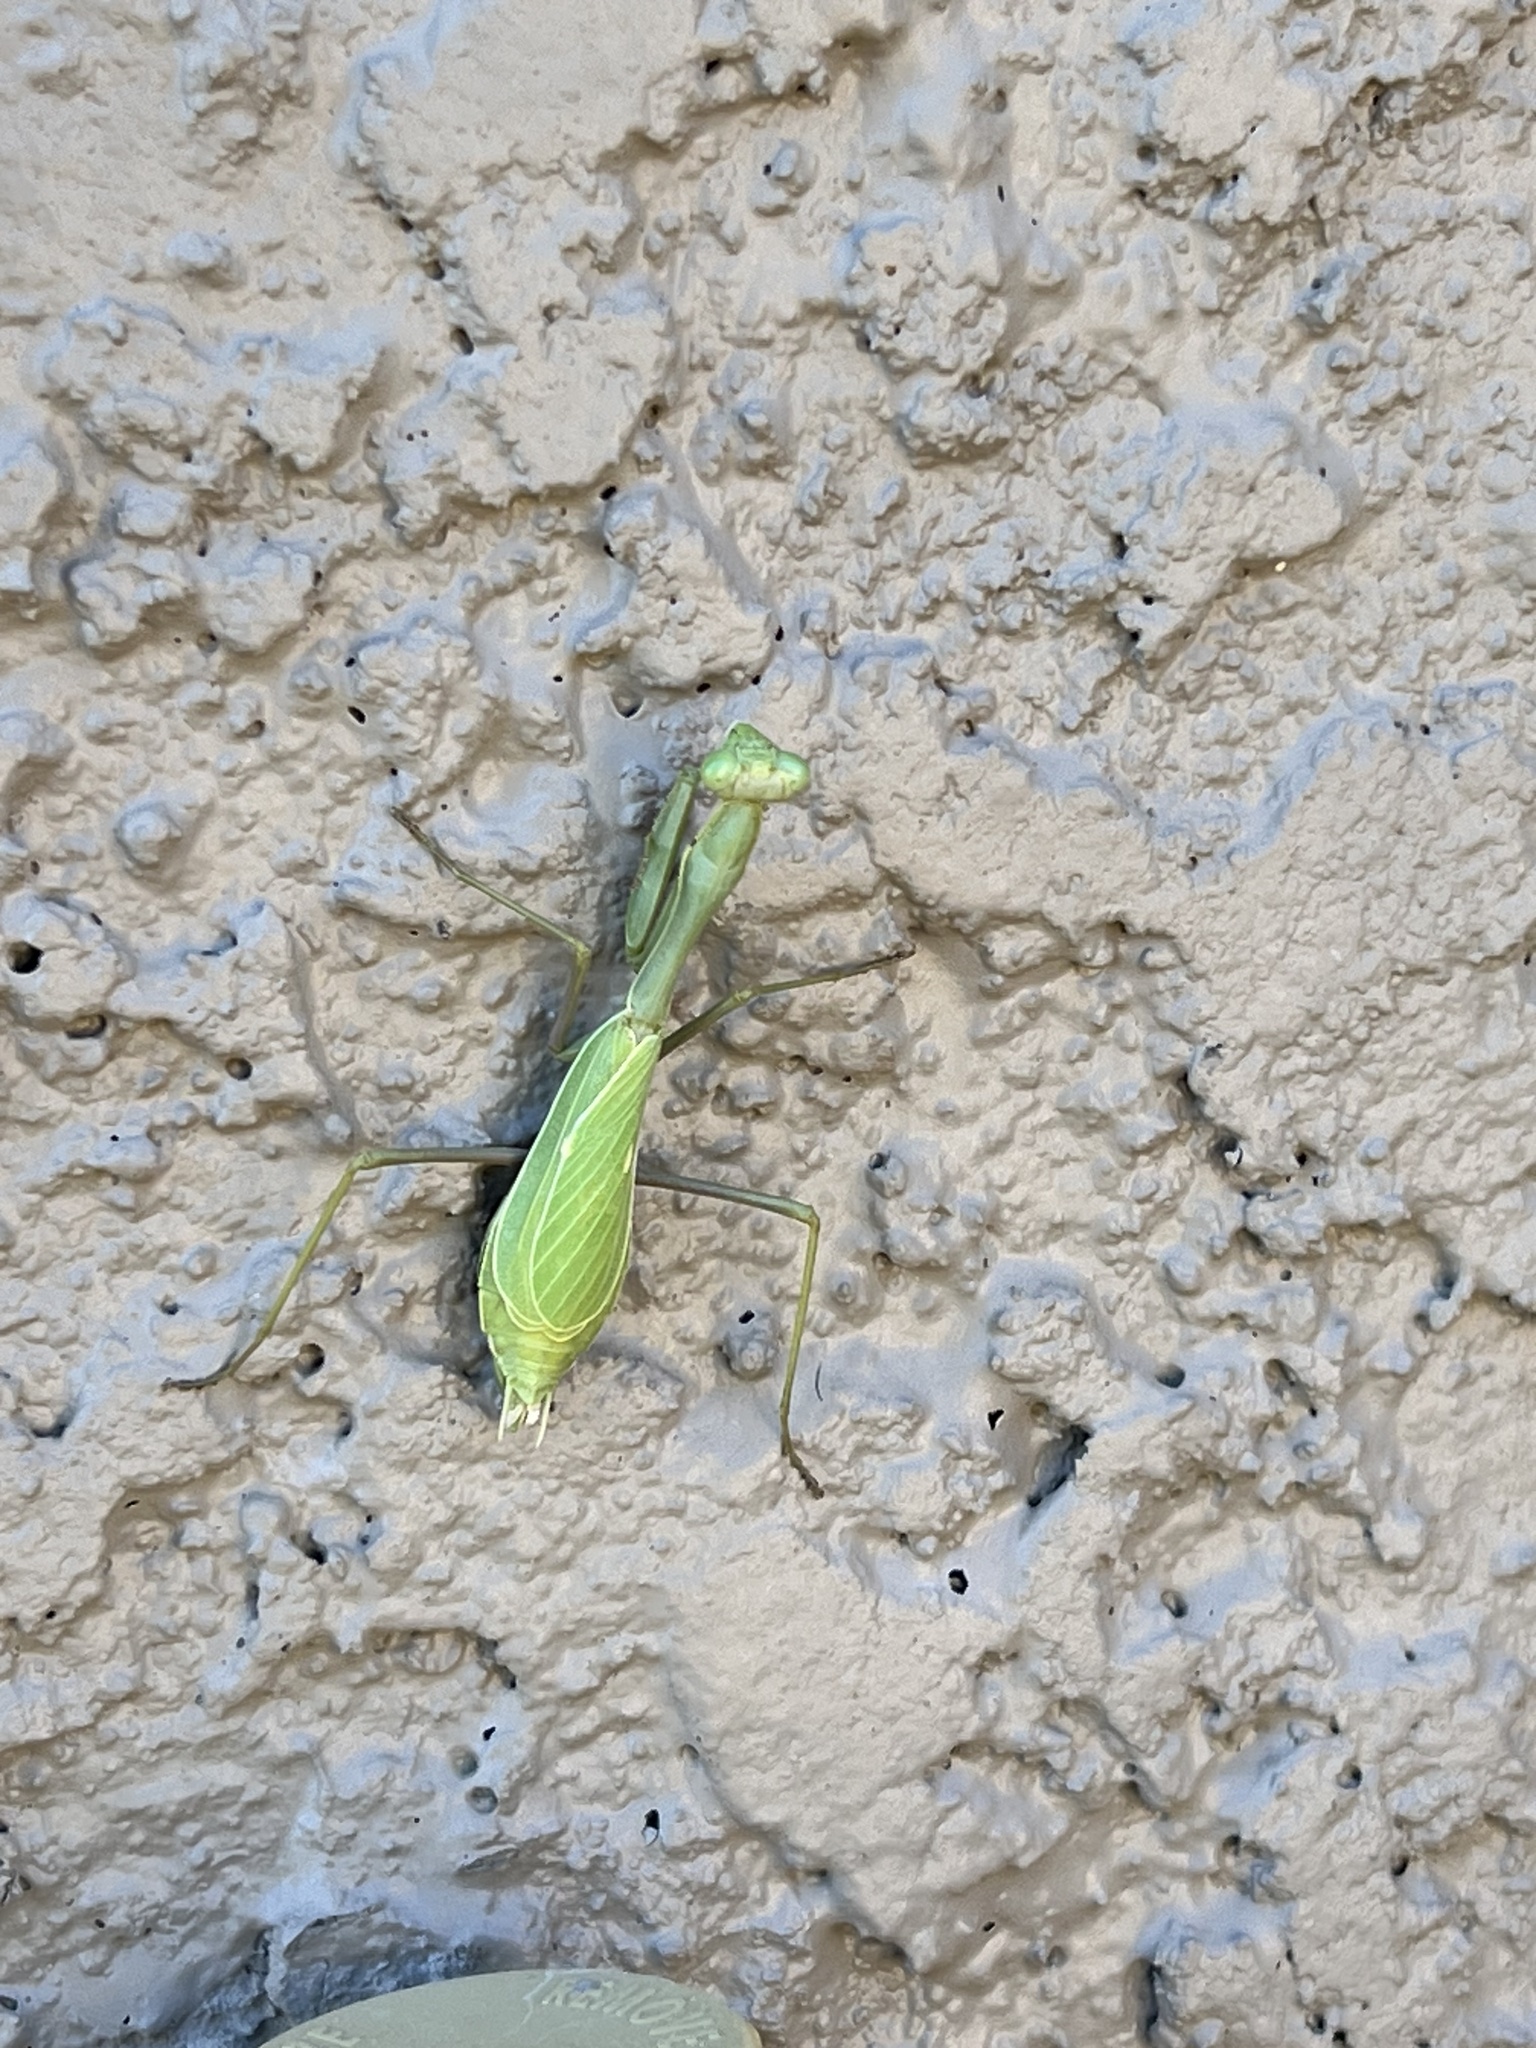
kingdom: Animalia
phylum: Arthropoda
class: Insecta
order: Mantodea
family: Mantidae
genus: Stagmomantis
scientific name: Stagmomantis limbata
